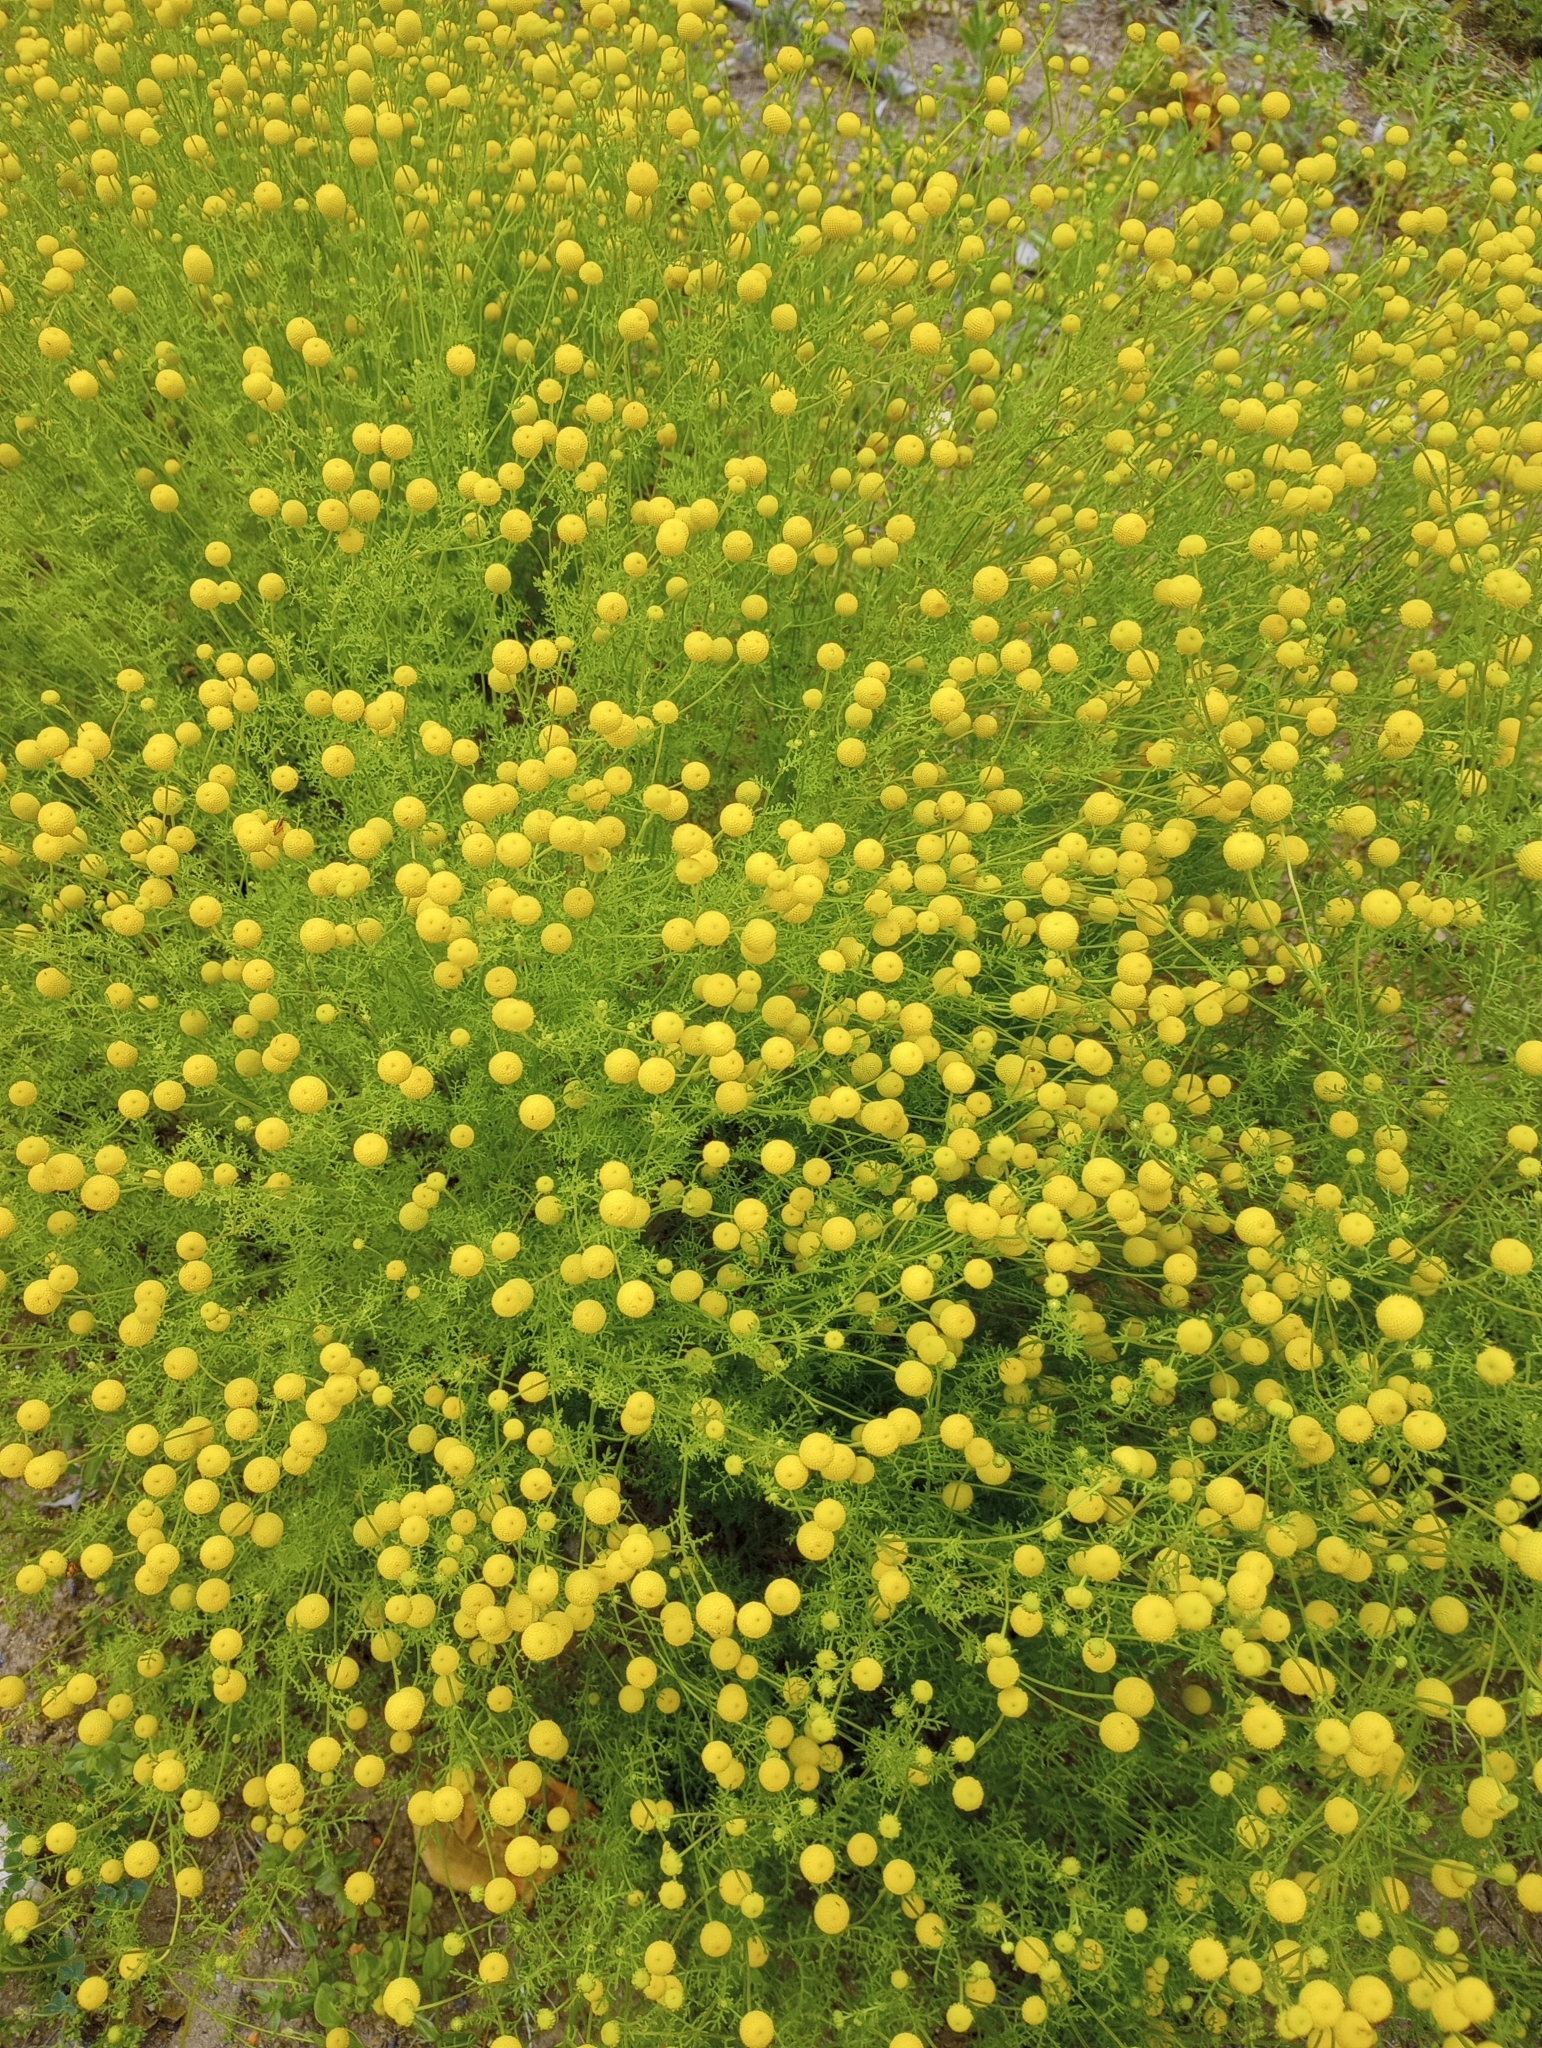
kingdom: Plantae
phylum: Tracheophyta
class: Magnoliopsida
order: Asterales
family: Asteraceae
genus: Oncosiphon
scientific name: Oncosiphon pilulifer
